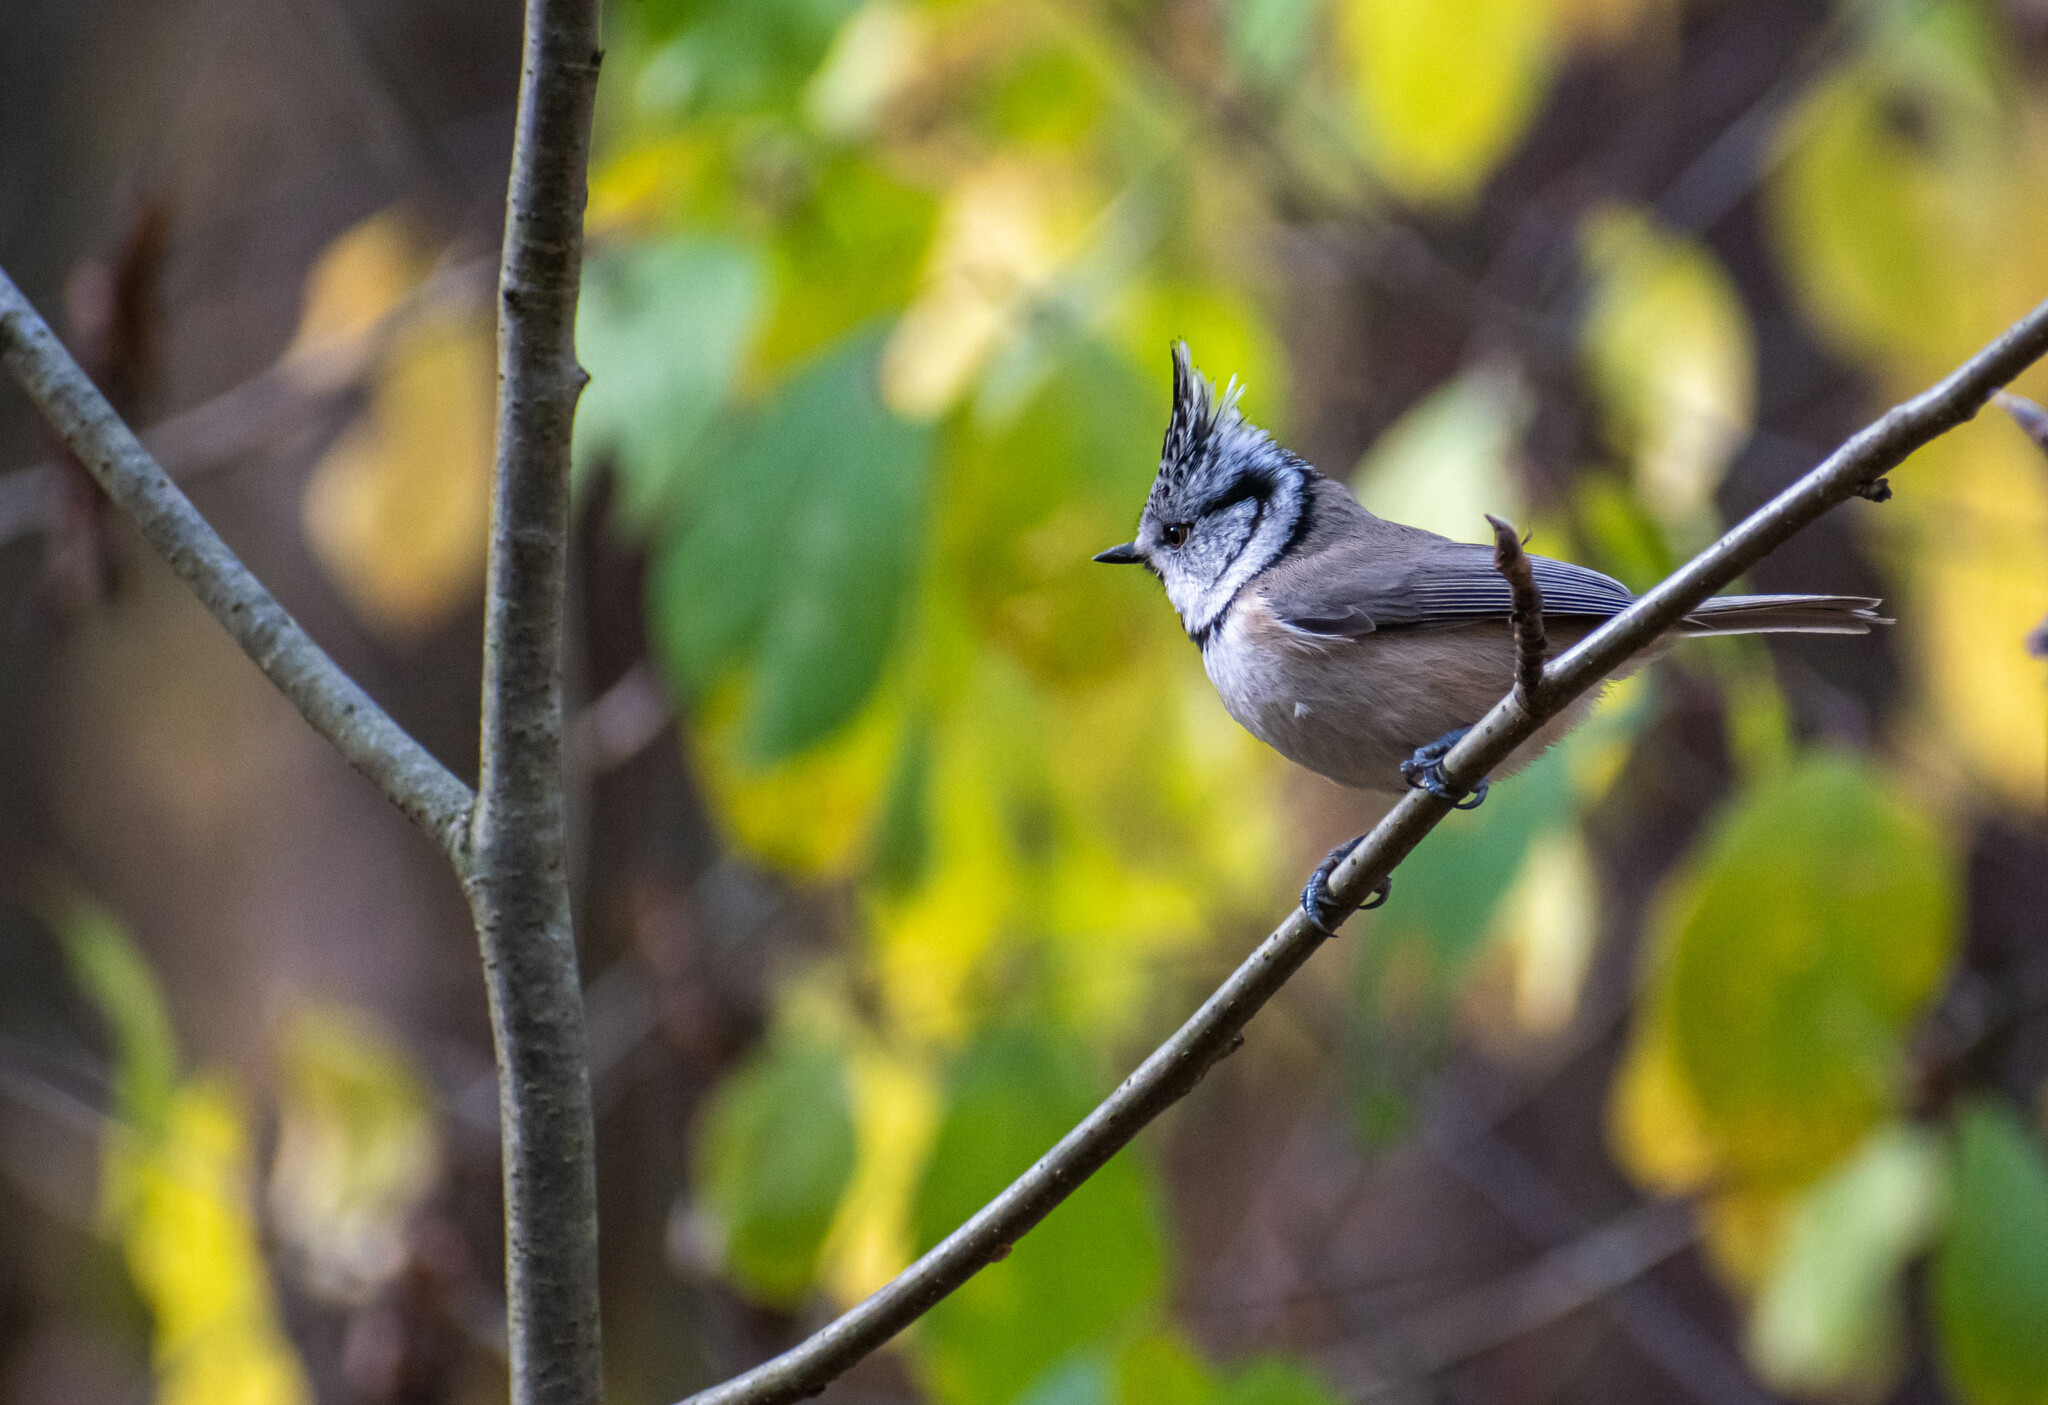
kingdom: Animalia
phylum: Chordata
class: Aves
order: Passeriformes
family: Paridae
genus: Lophophanes
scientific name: Lophophanes cristatus
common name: European crested tit
